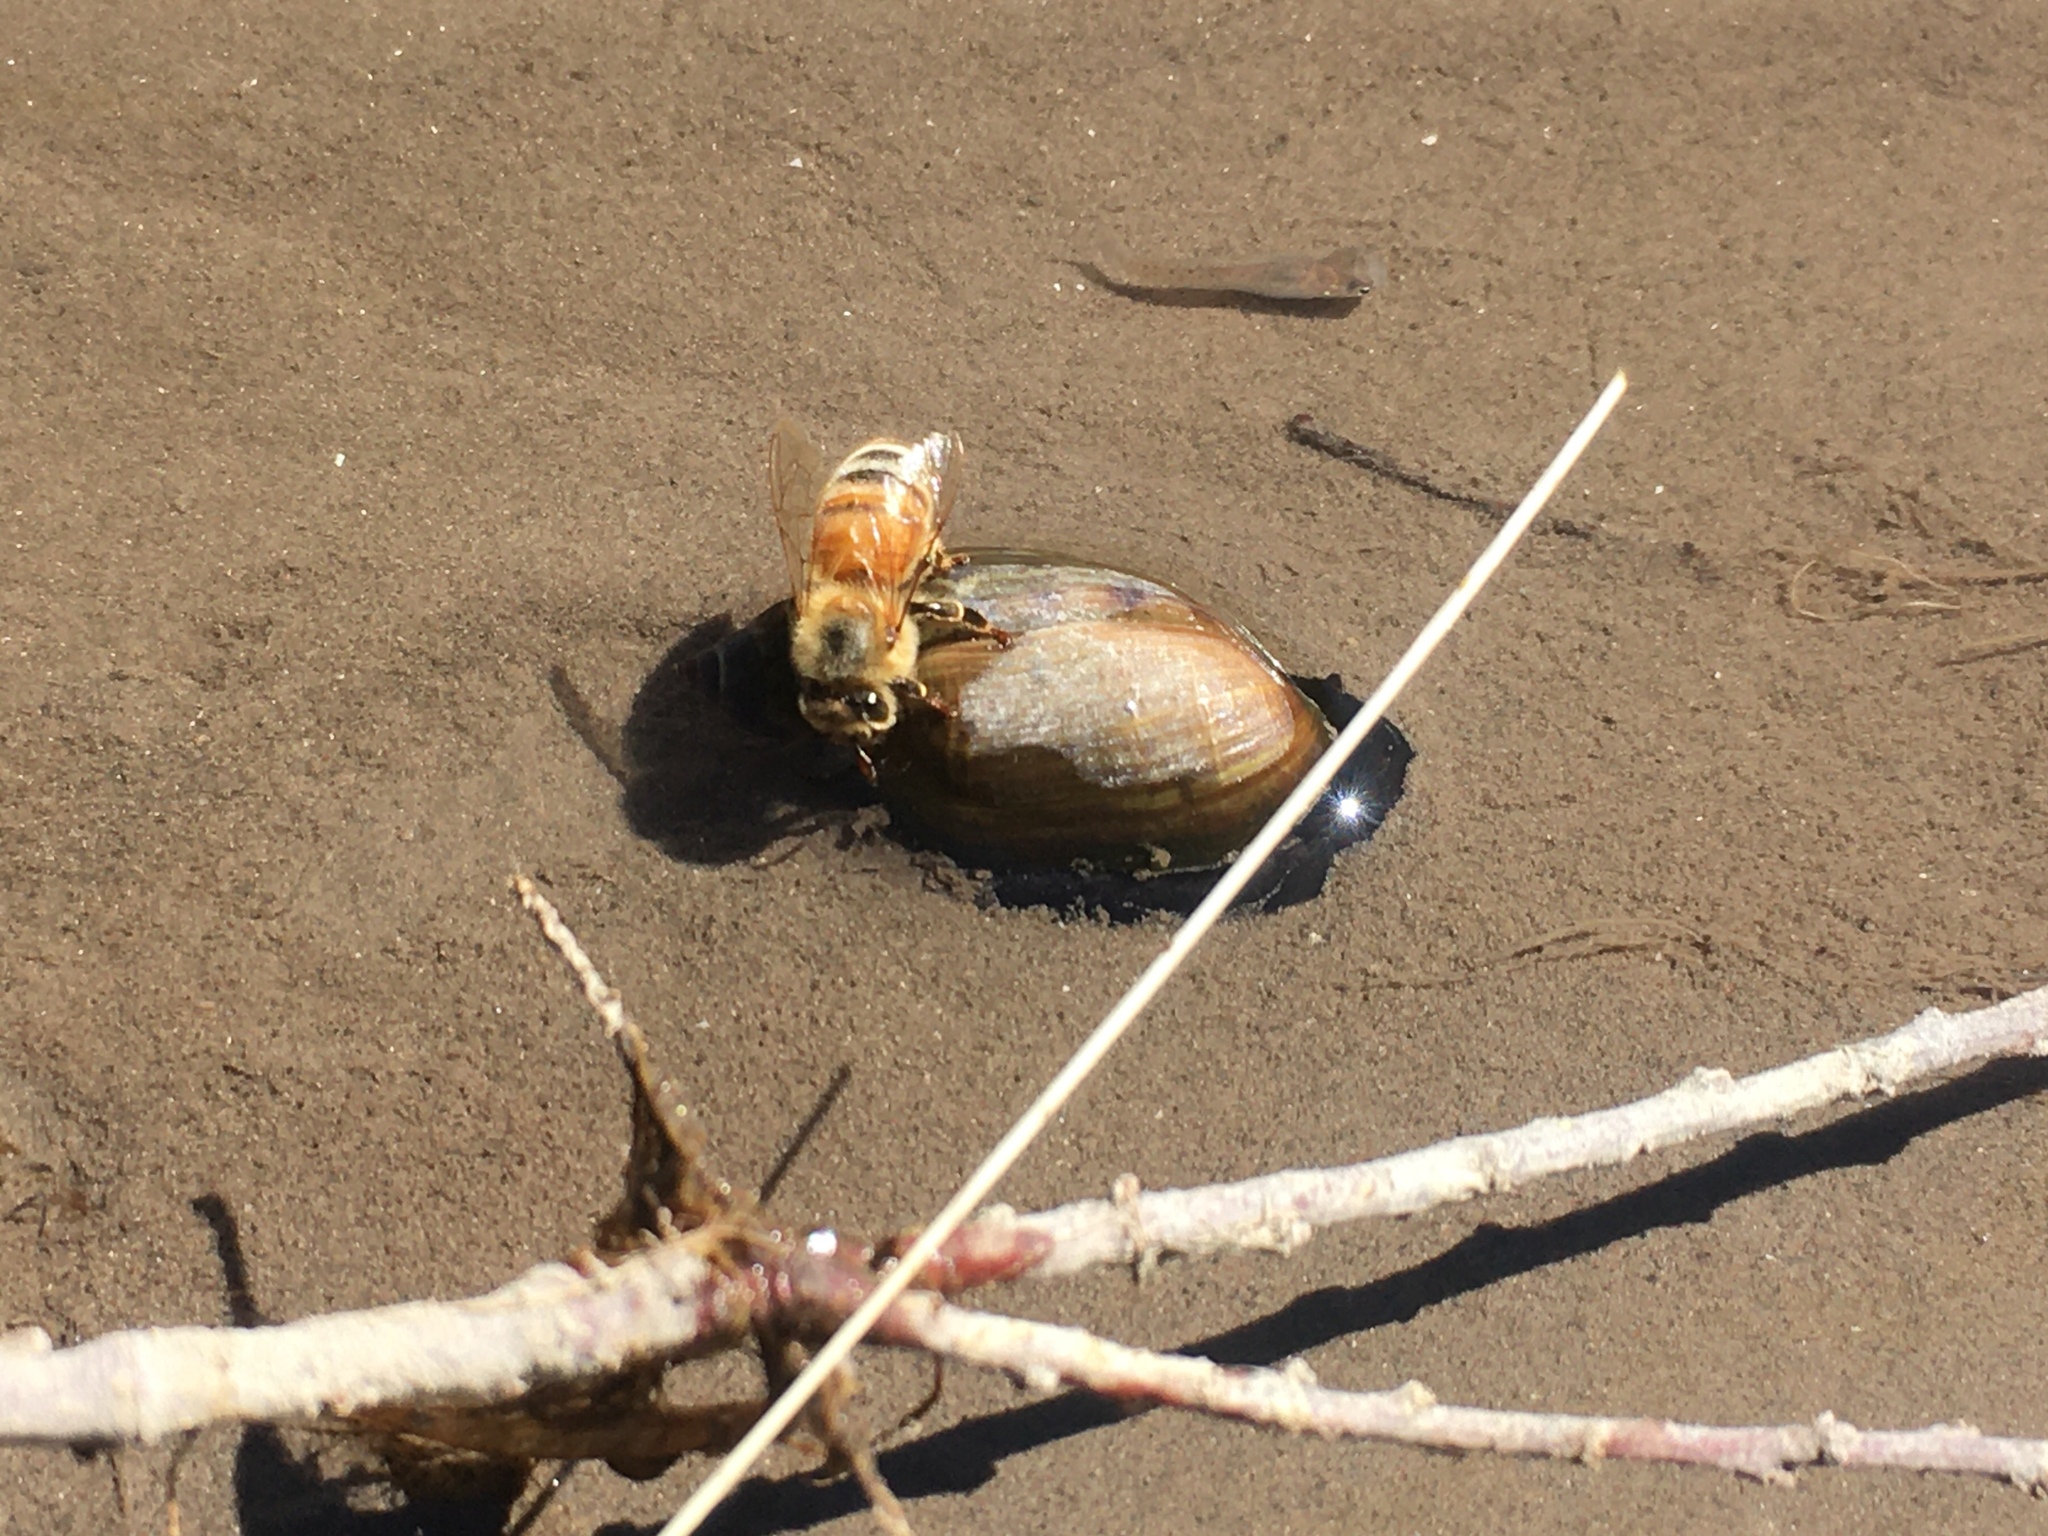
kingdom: Animalia
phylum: Arthropoda
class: Insecta
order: Hymenoptera
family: Apidae
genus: Apis
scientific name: Apis mellifera
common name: Honey bee
